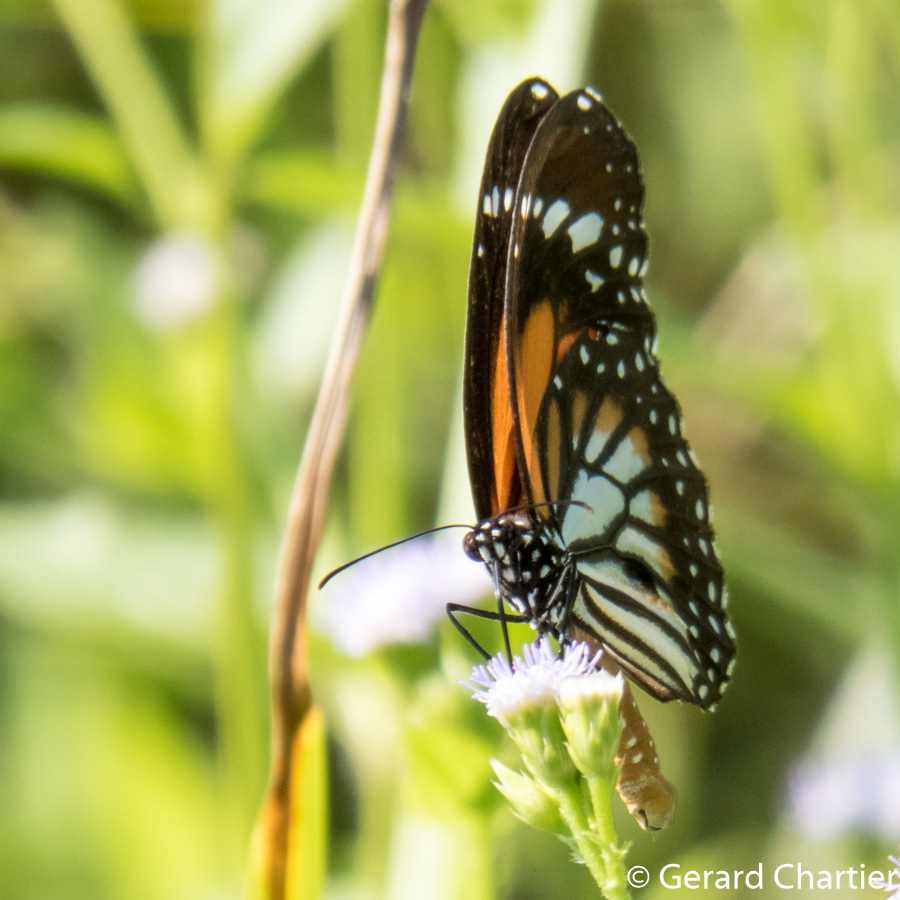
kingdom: Animalia
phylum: Arthropoda
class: Insecta
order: Lepidoptera
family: Nymphalidae
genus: Danaus
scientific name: Danaus melanippus
